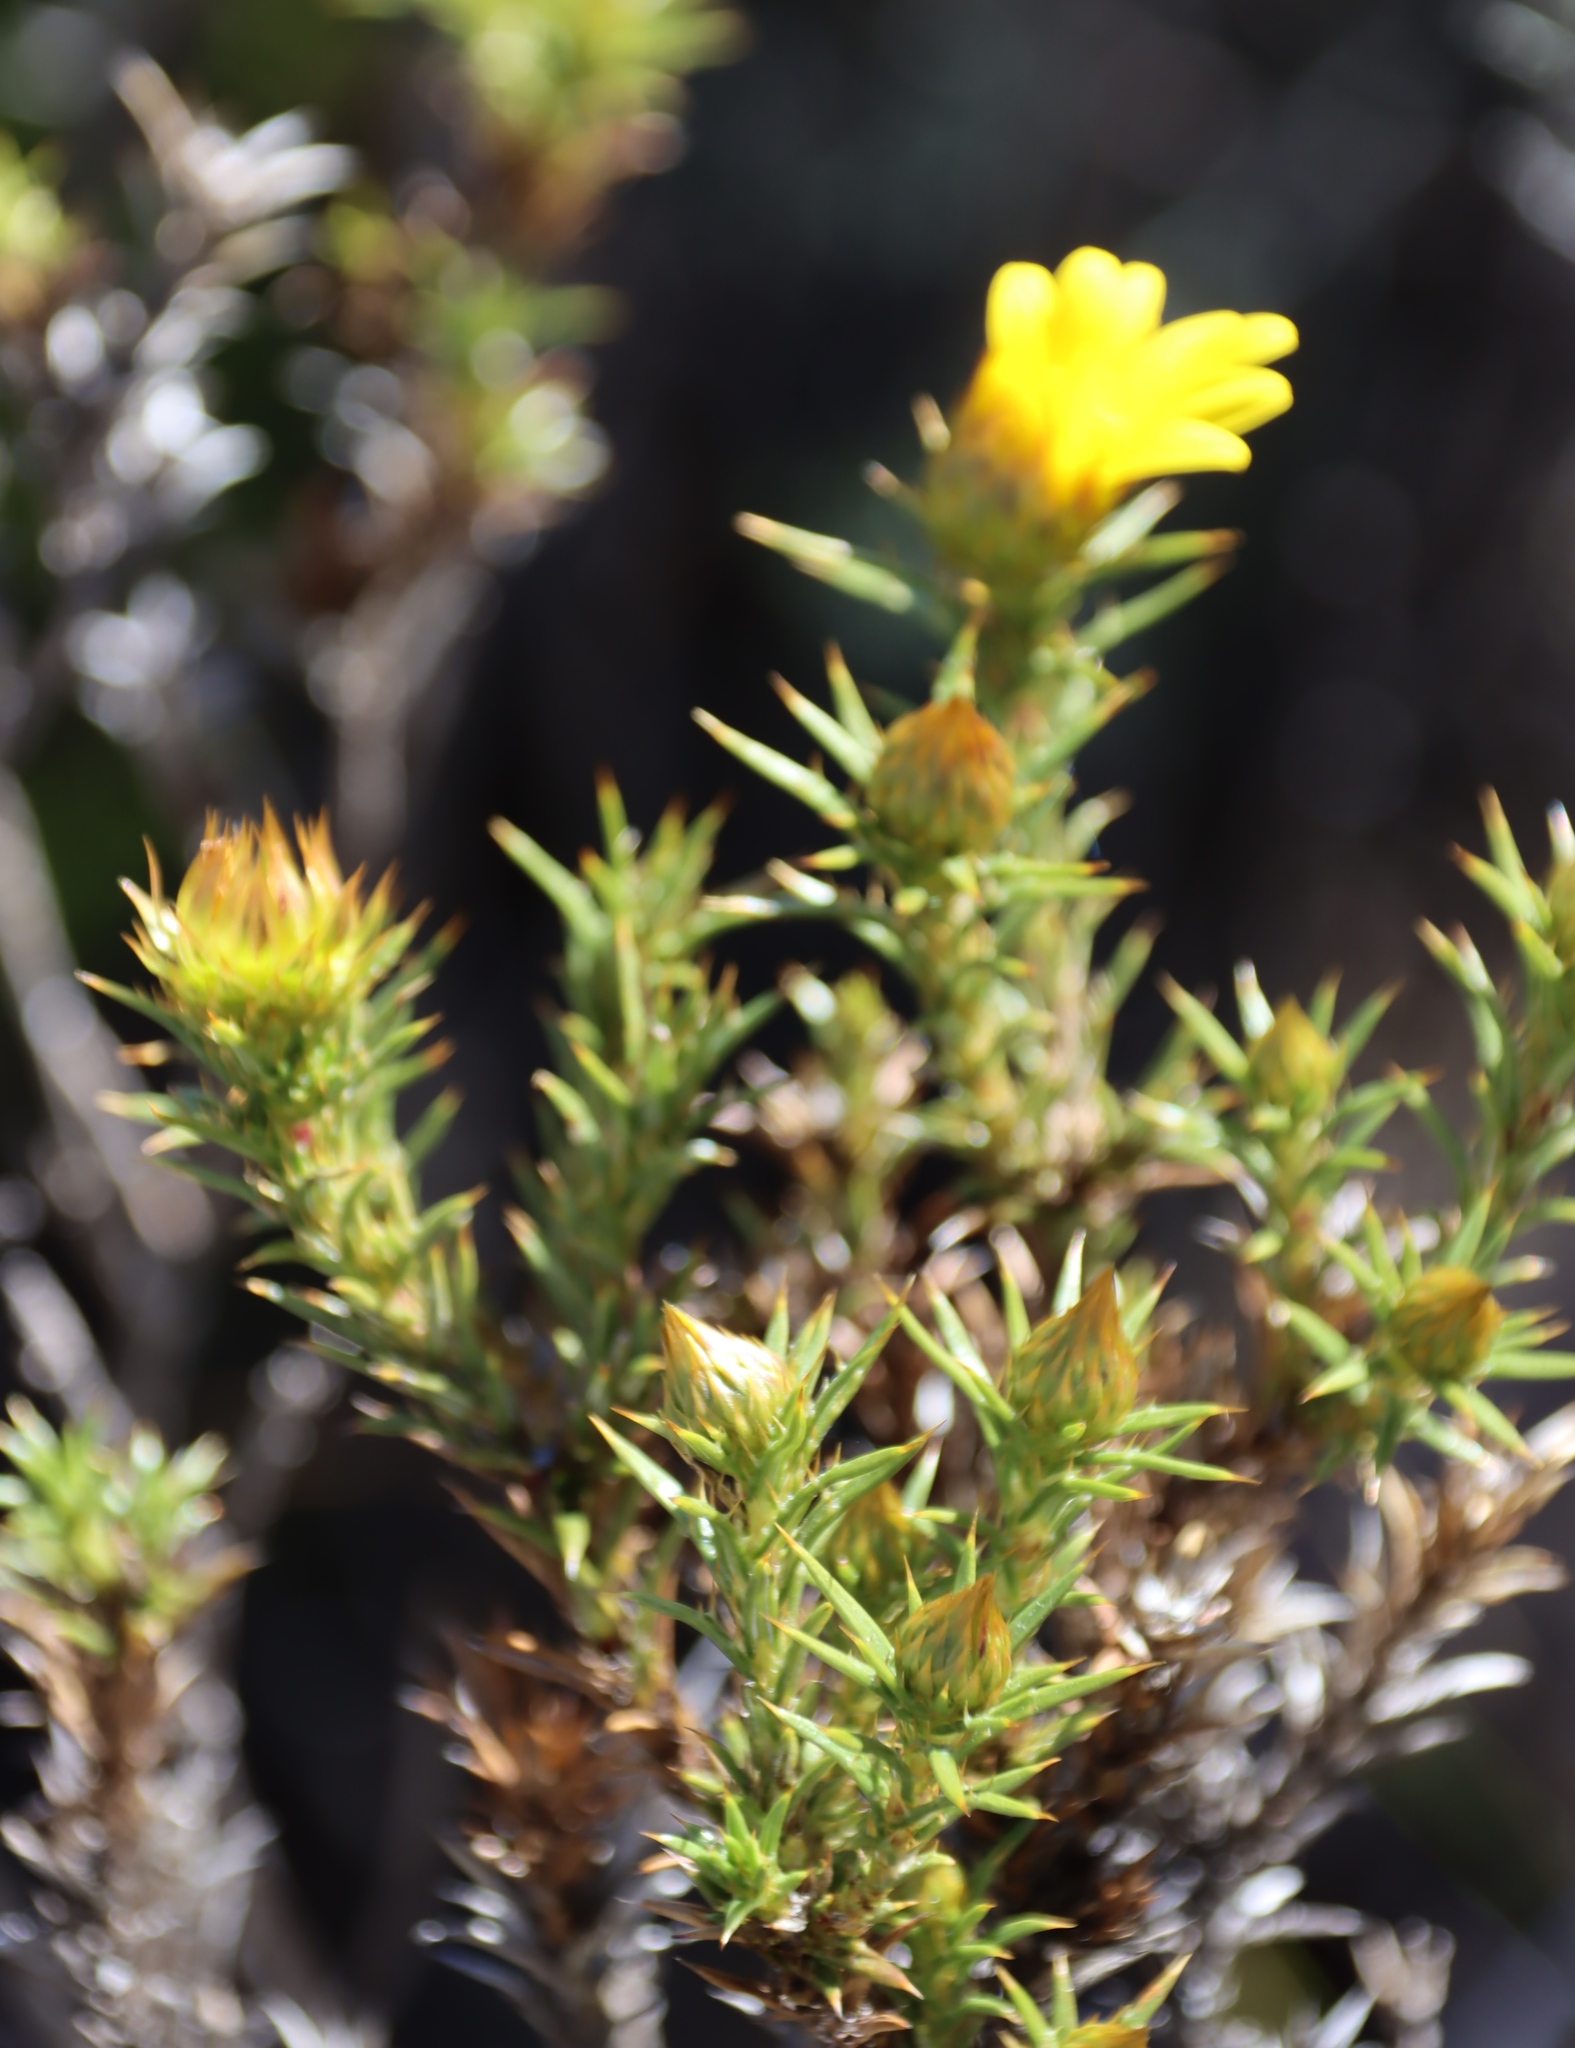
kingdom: Plantae
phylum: Tracheophyta
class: Magnoliopsida
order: Asterales
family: Asteraceae
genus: Oedera
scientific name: Oedera pungens
